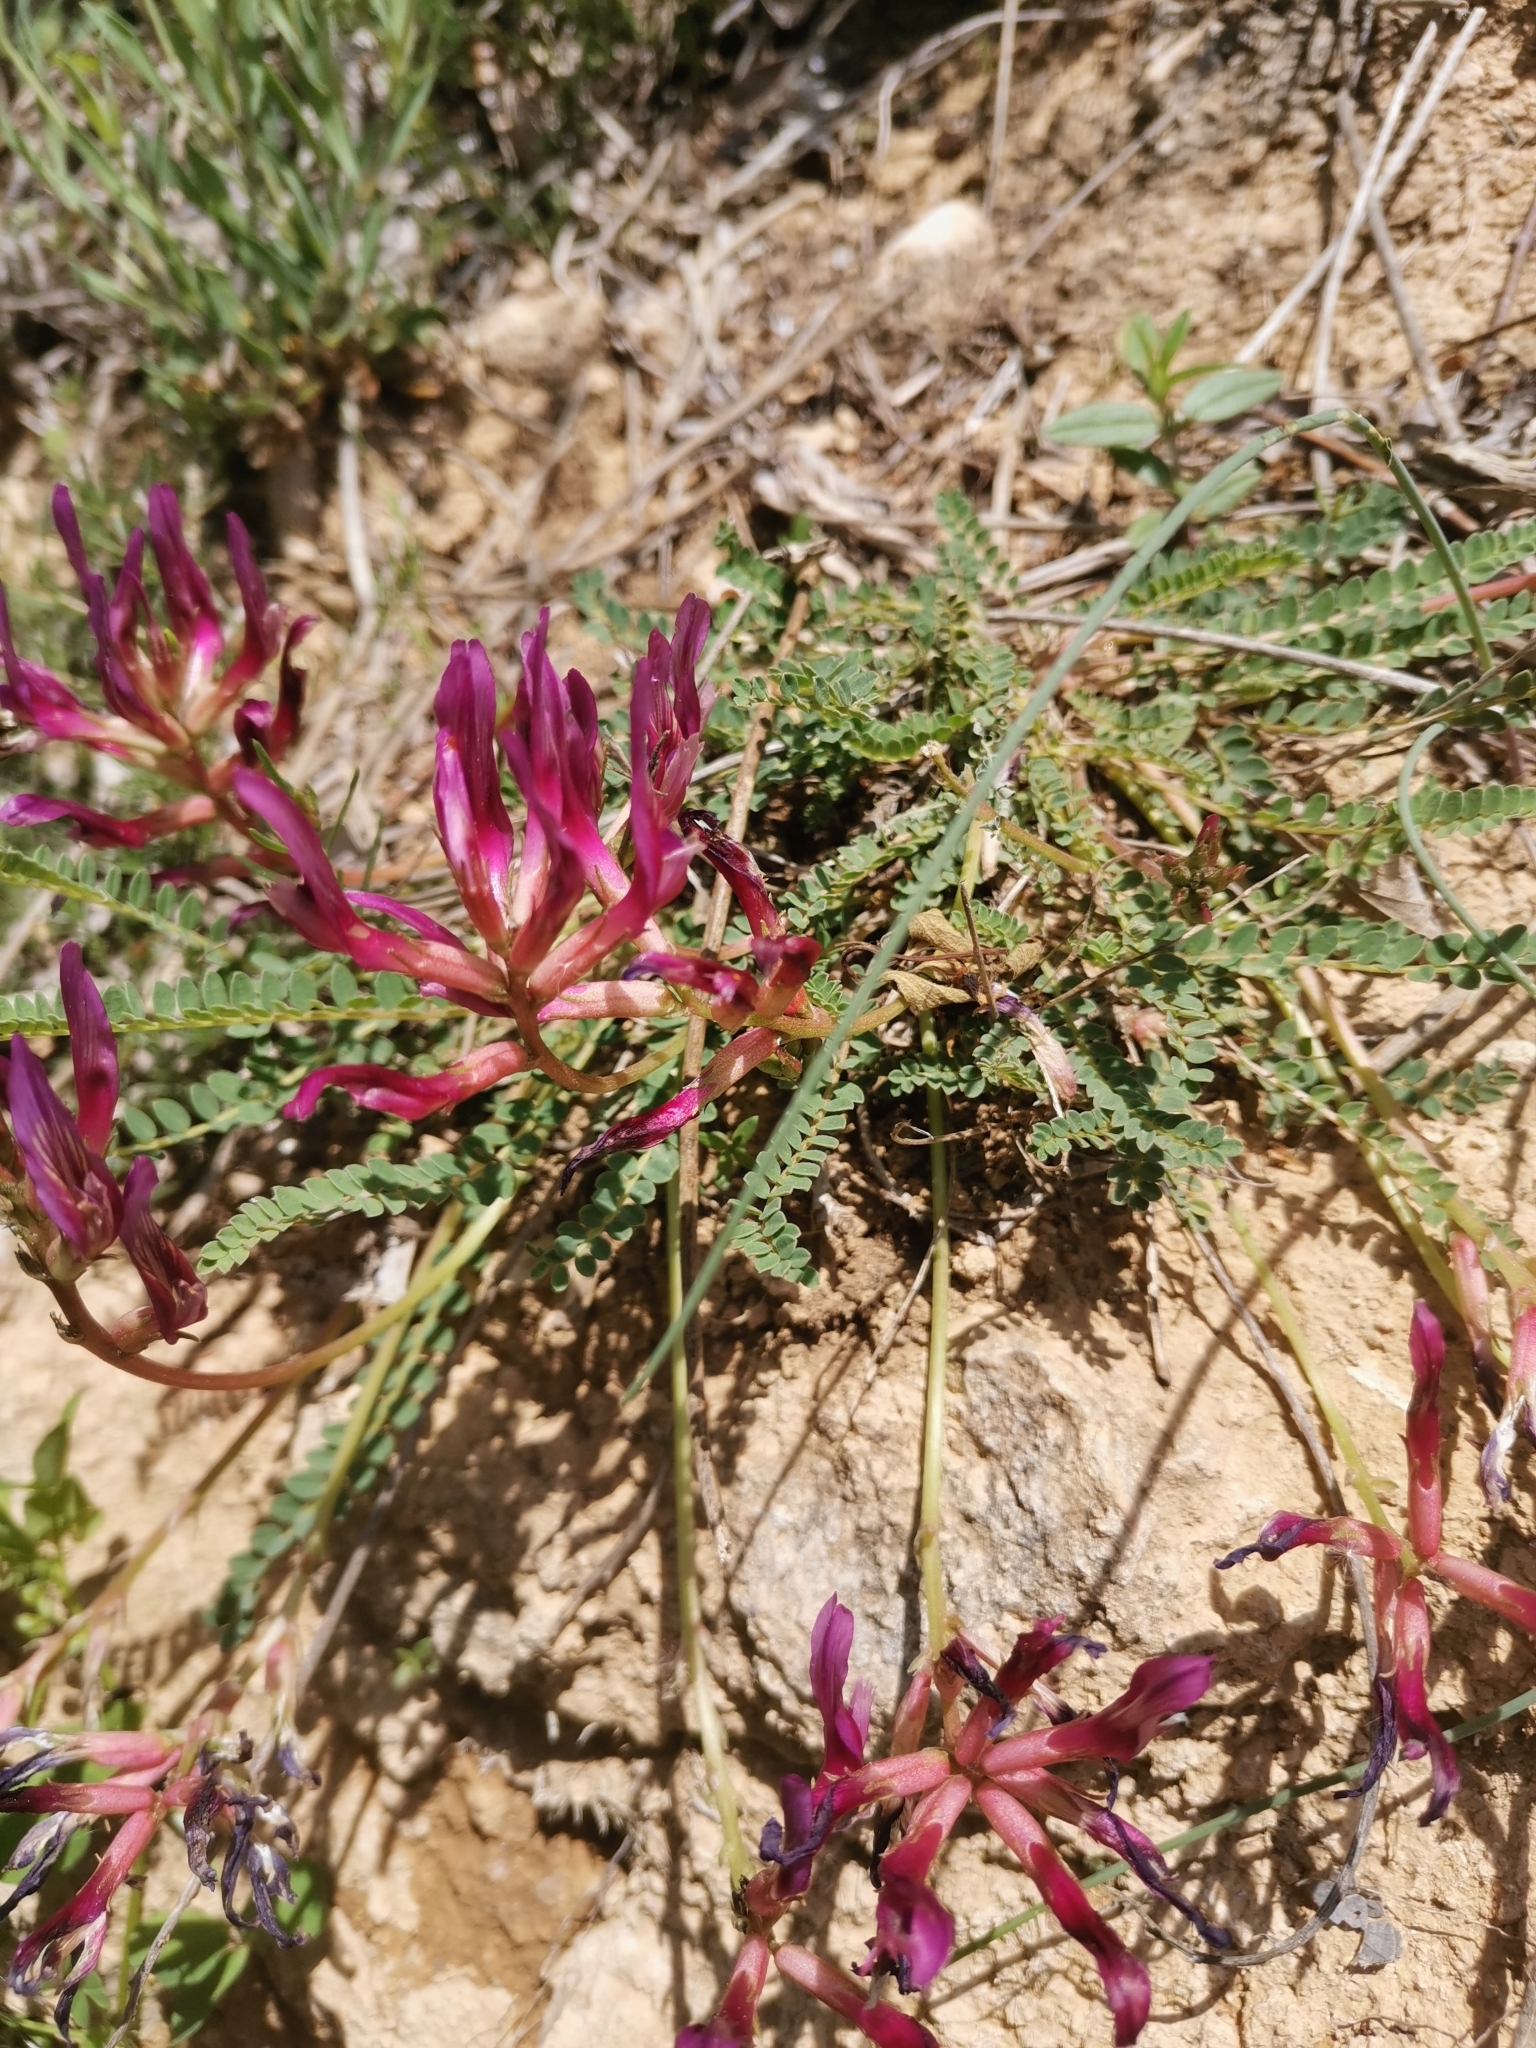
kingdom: Plantae
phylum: Tracheophyta
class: Magnoliopsida
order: Fabales
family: Fabaceae
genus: Astragalus
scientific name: Astragalus monspessulanus
